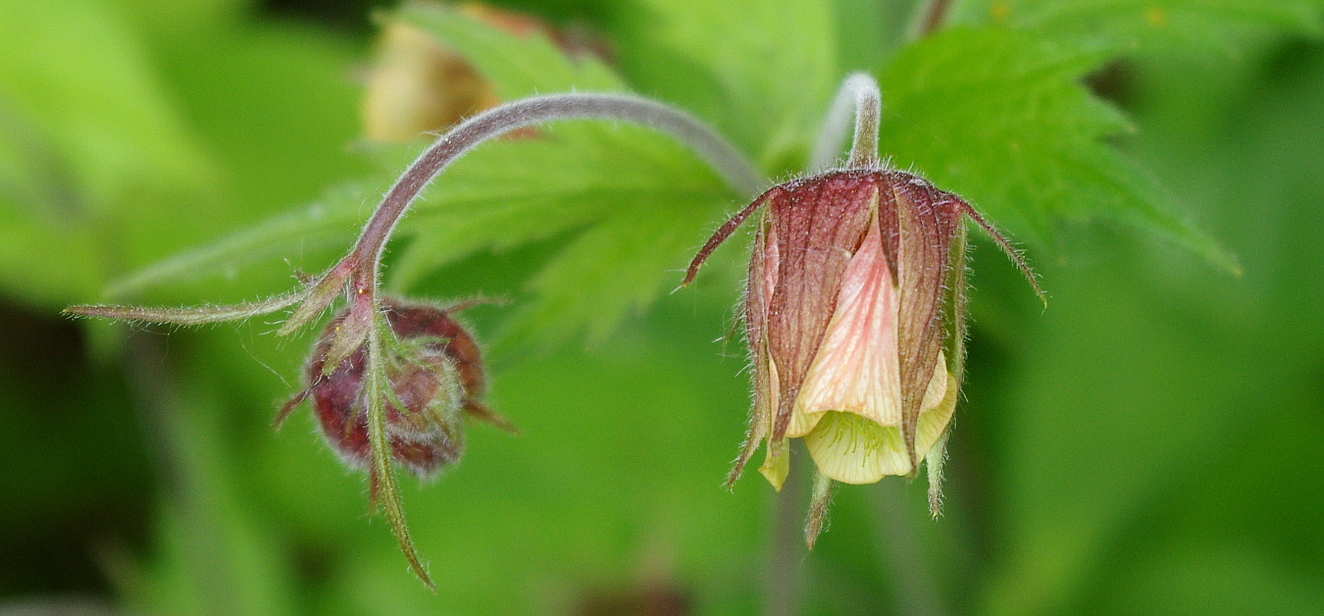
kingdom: Plantae
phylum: Tracheophyta
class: Magnoliopsida
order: Rosales
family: Rosaceae
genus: Geum
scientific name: Geum rivale
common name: Water avens
